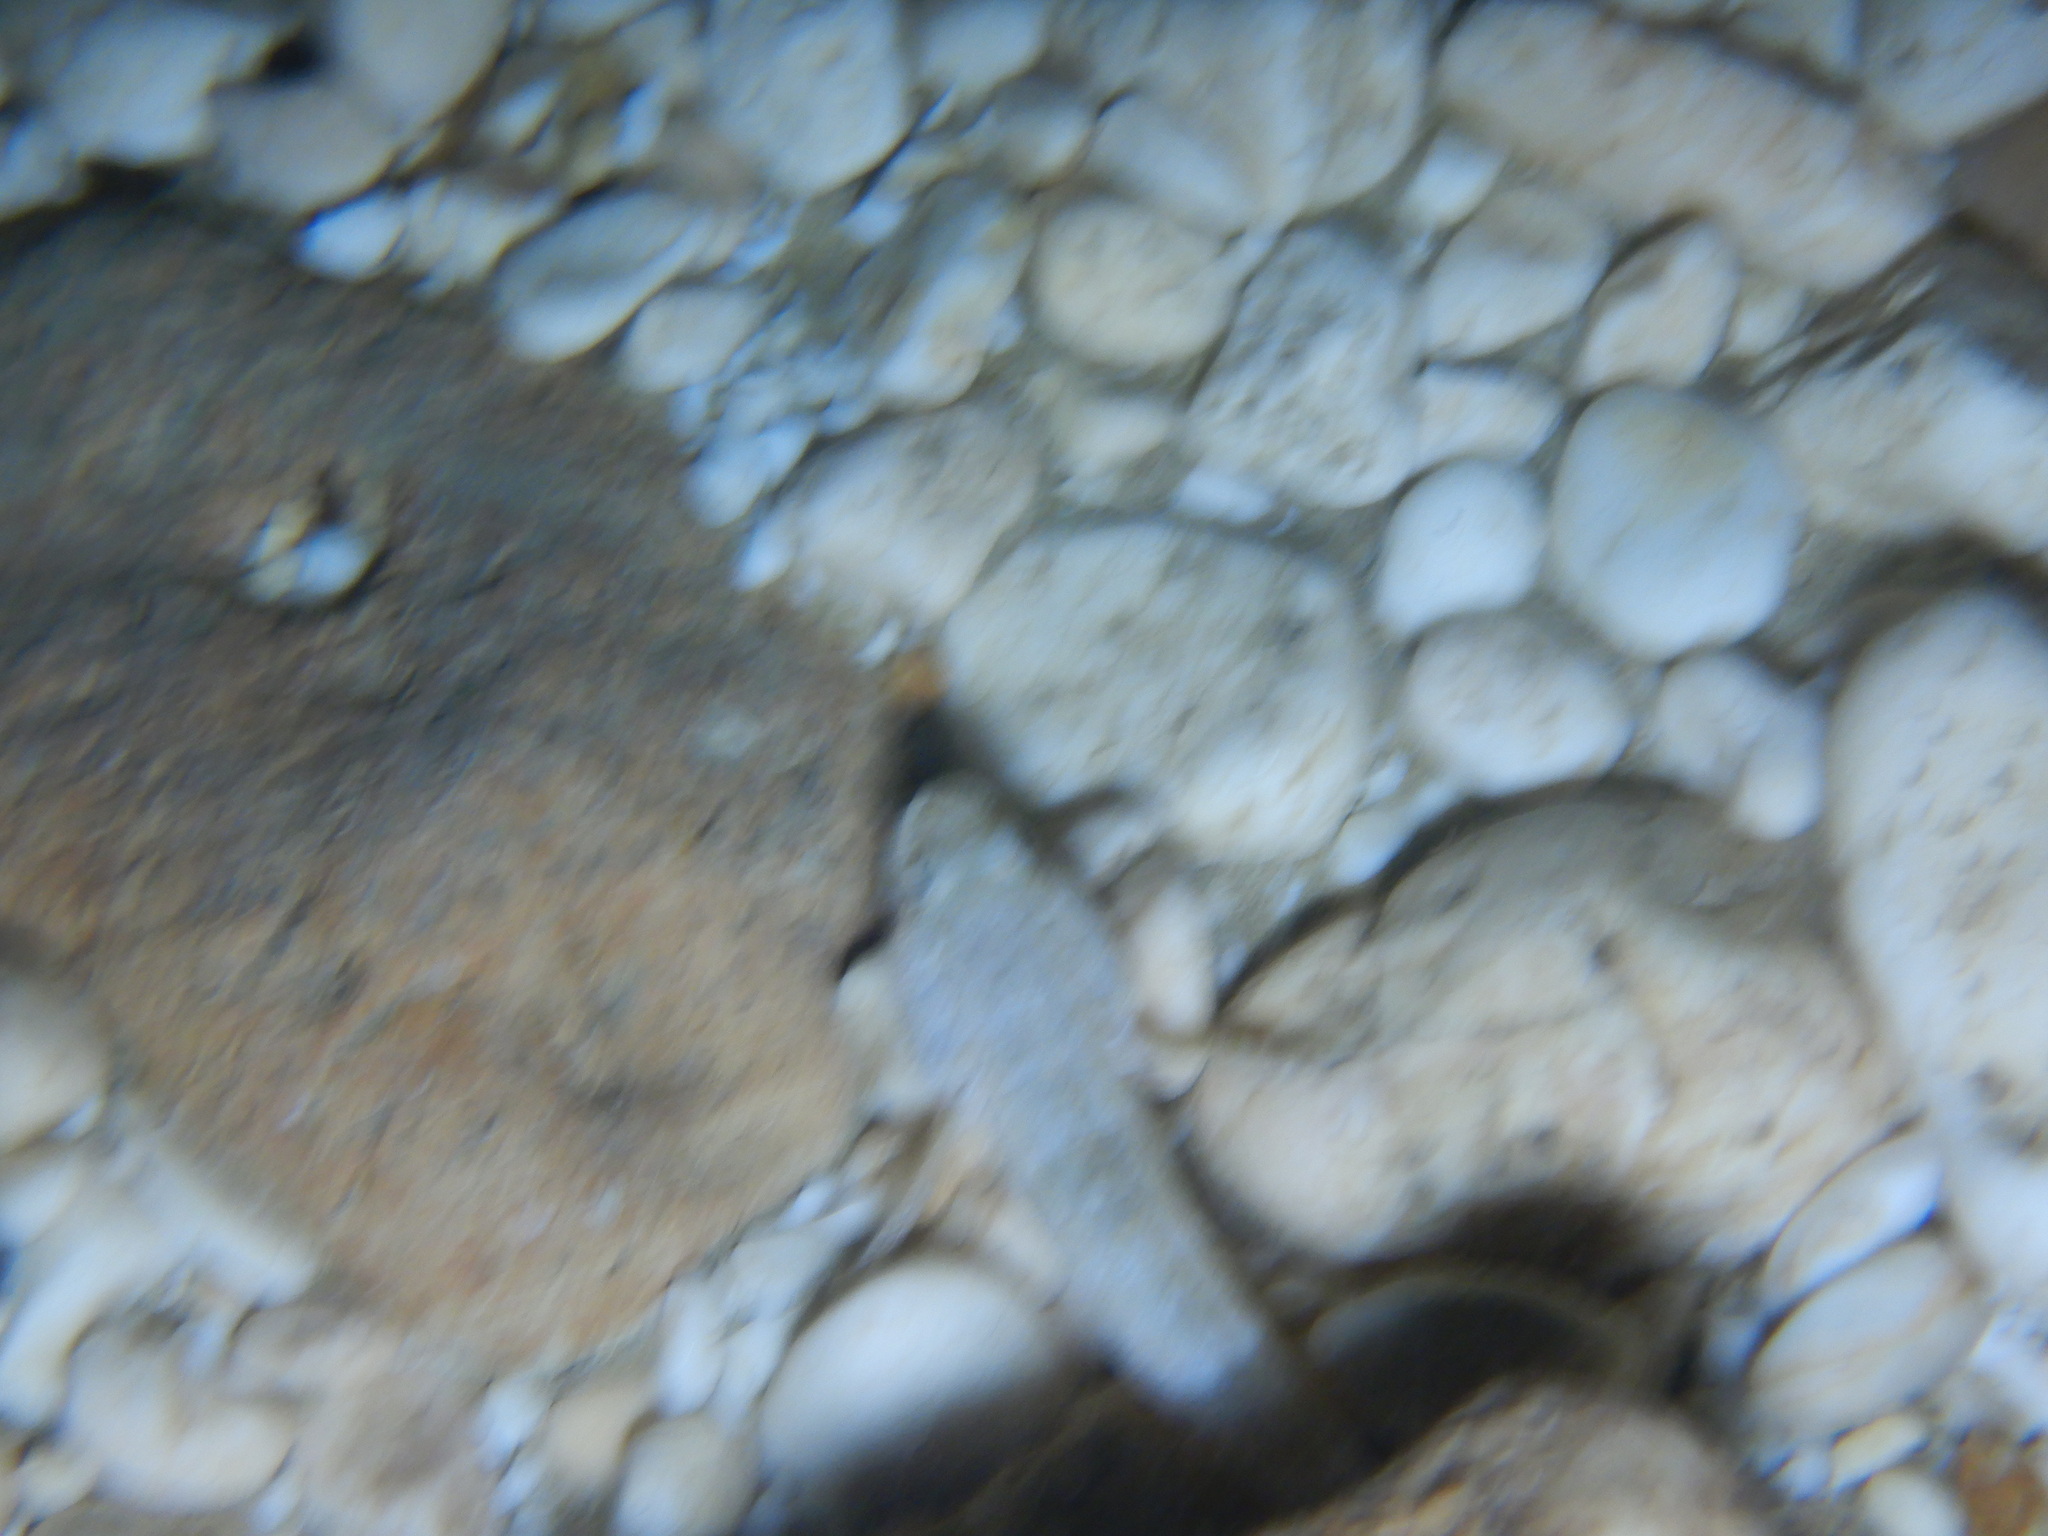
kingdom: Animalia
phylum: Chordata
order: Perciformes
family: Gobiidae
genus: Gobius
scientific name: Gobius cobitis
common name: Giant goby
